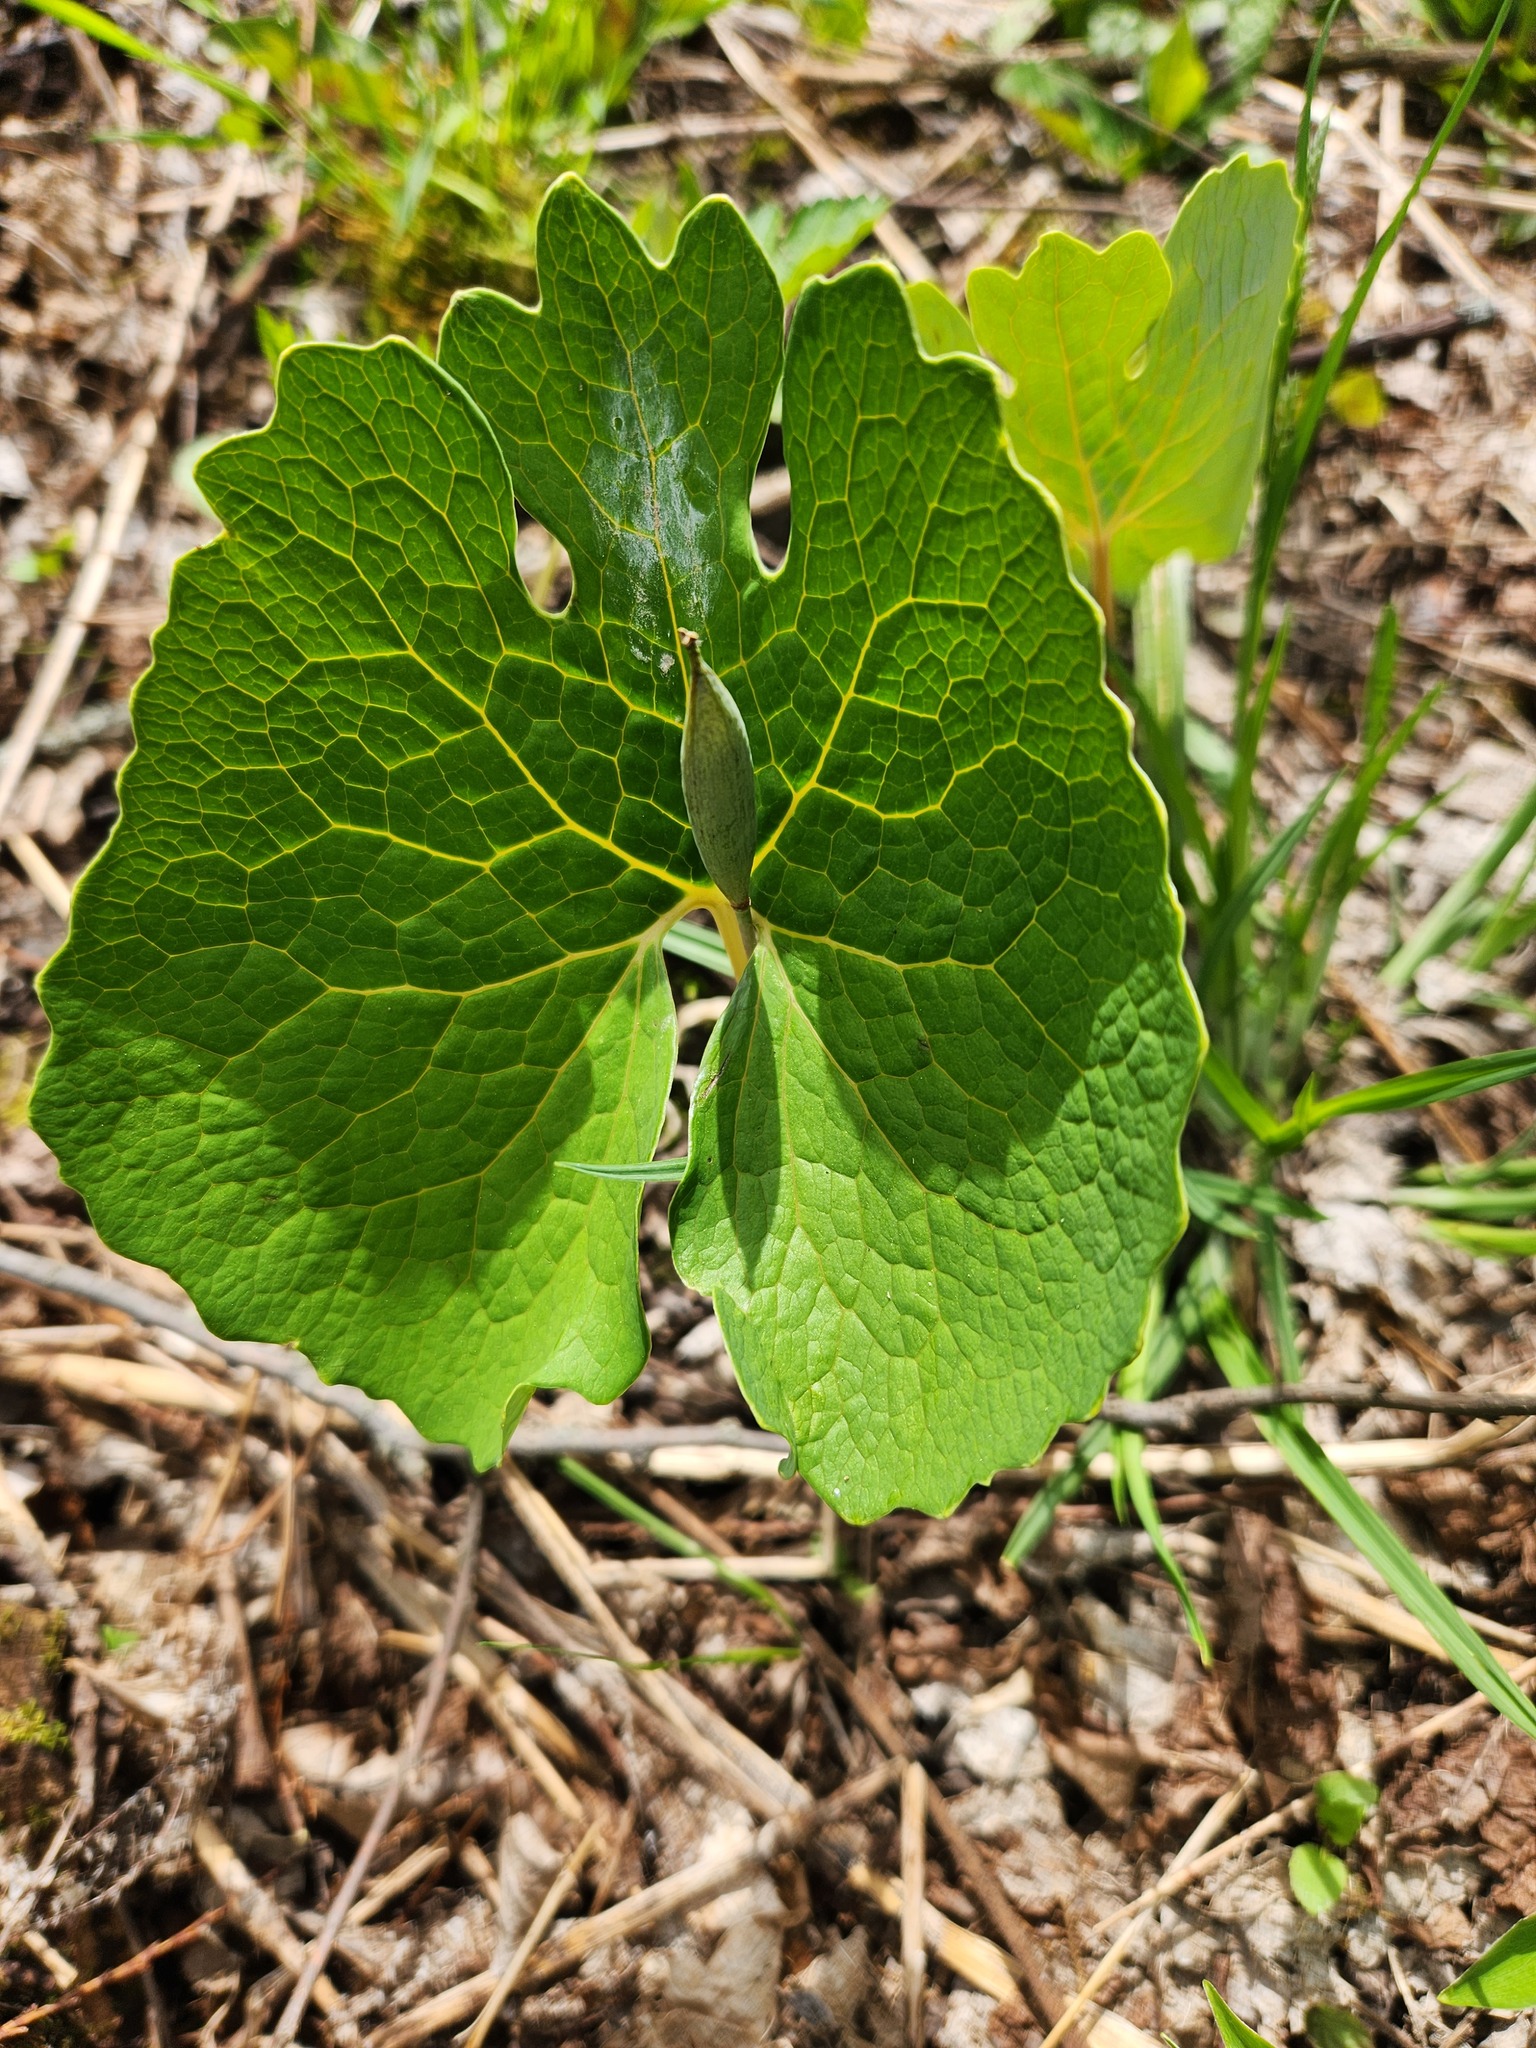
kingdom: Plantae
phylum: Tracheophyta
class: Magnoliopsida
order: Ranunculales
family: Papaveraceae
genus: Sanguinaria
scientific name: Sanguinaria canadensis
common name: Bloodroot
